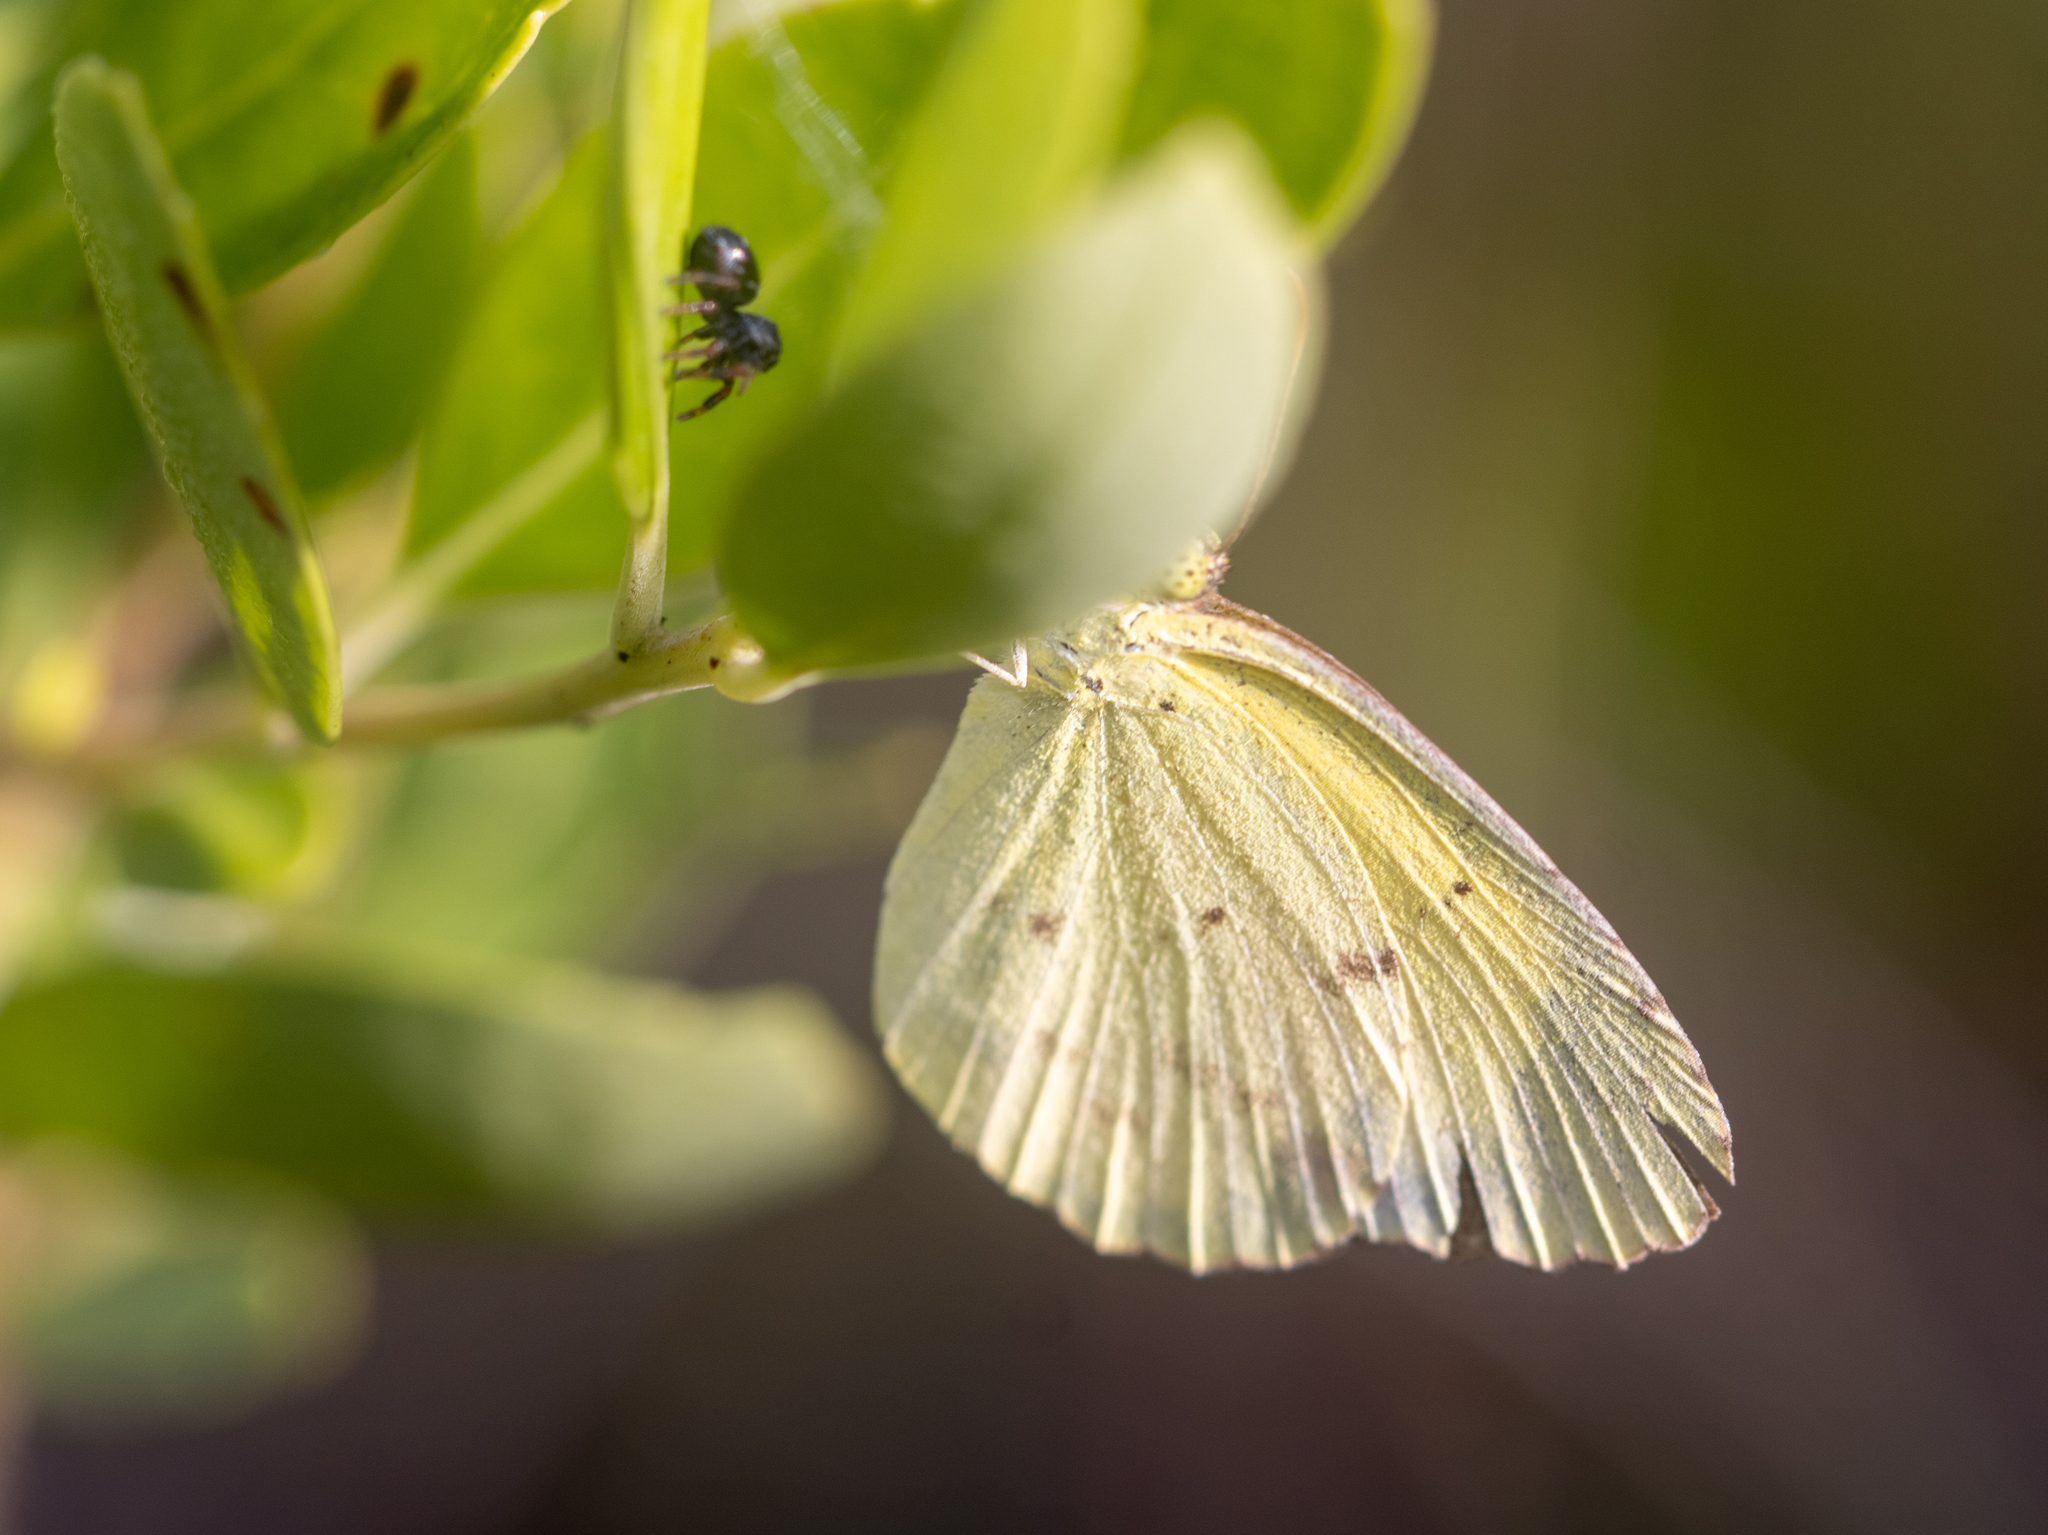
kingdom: Animalia
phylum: Arthropoda
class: Insecta
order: Lepidoptera
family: Pieridae
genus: Pyrisitia
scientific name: Pyrisitia lisa
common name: Little yellow
